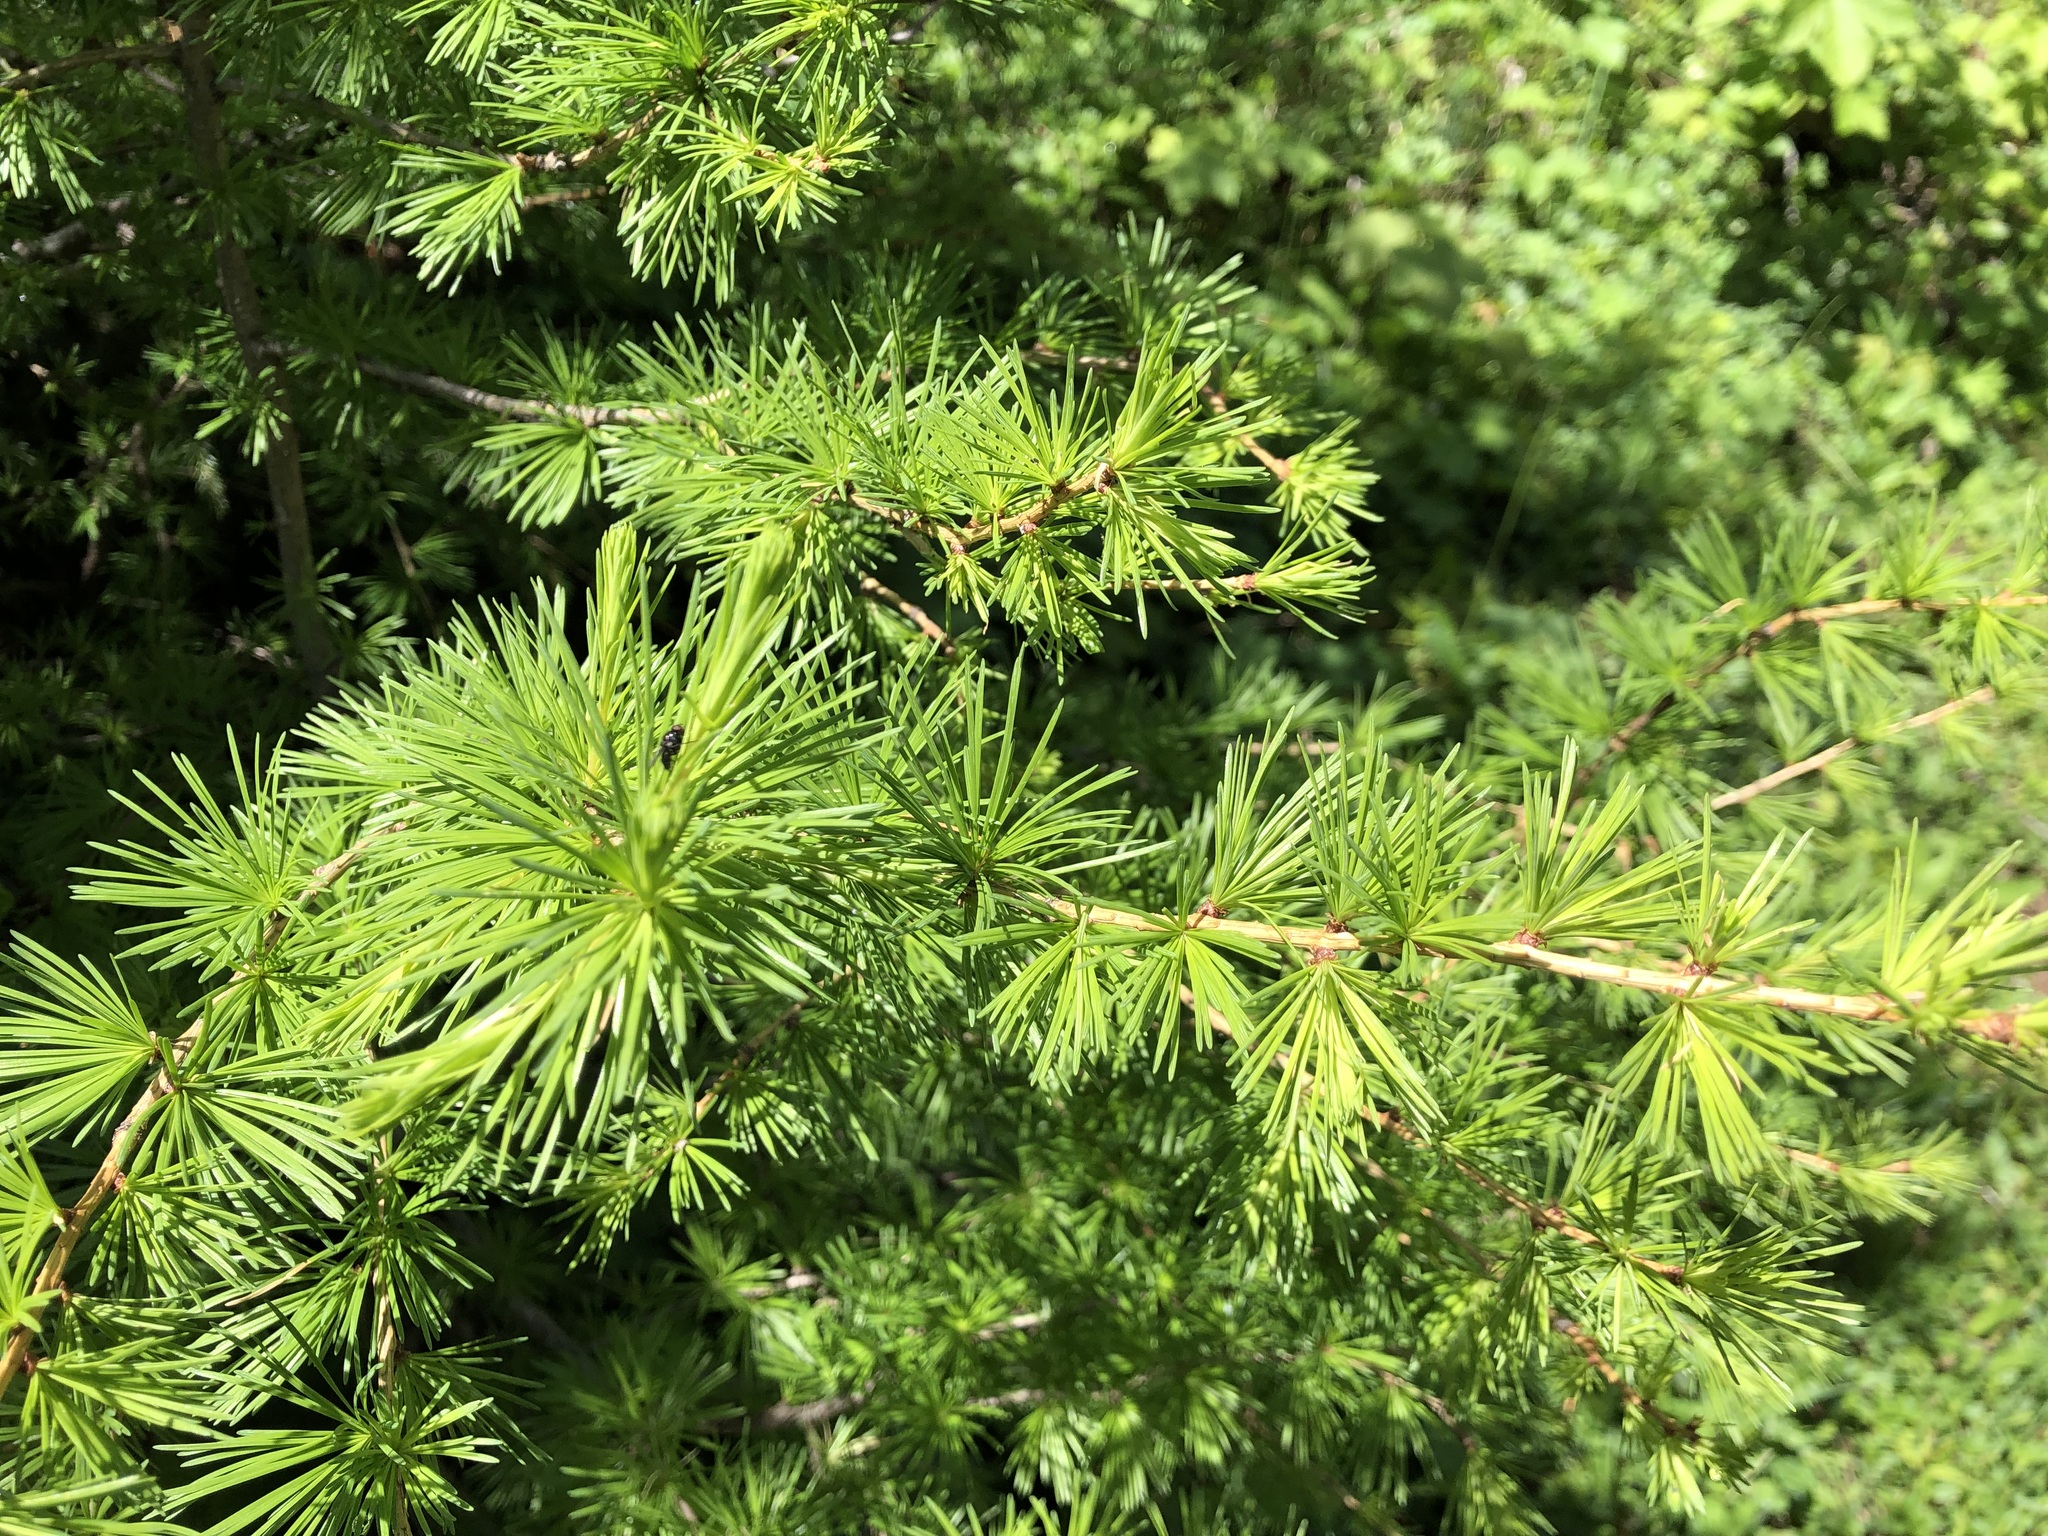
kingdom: Plantae
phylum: Tracheophyta
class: Pinopsida
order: Pinales
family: Pinaceae
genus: Larix
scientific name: Larix decidua
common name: European larch
